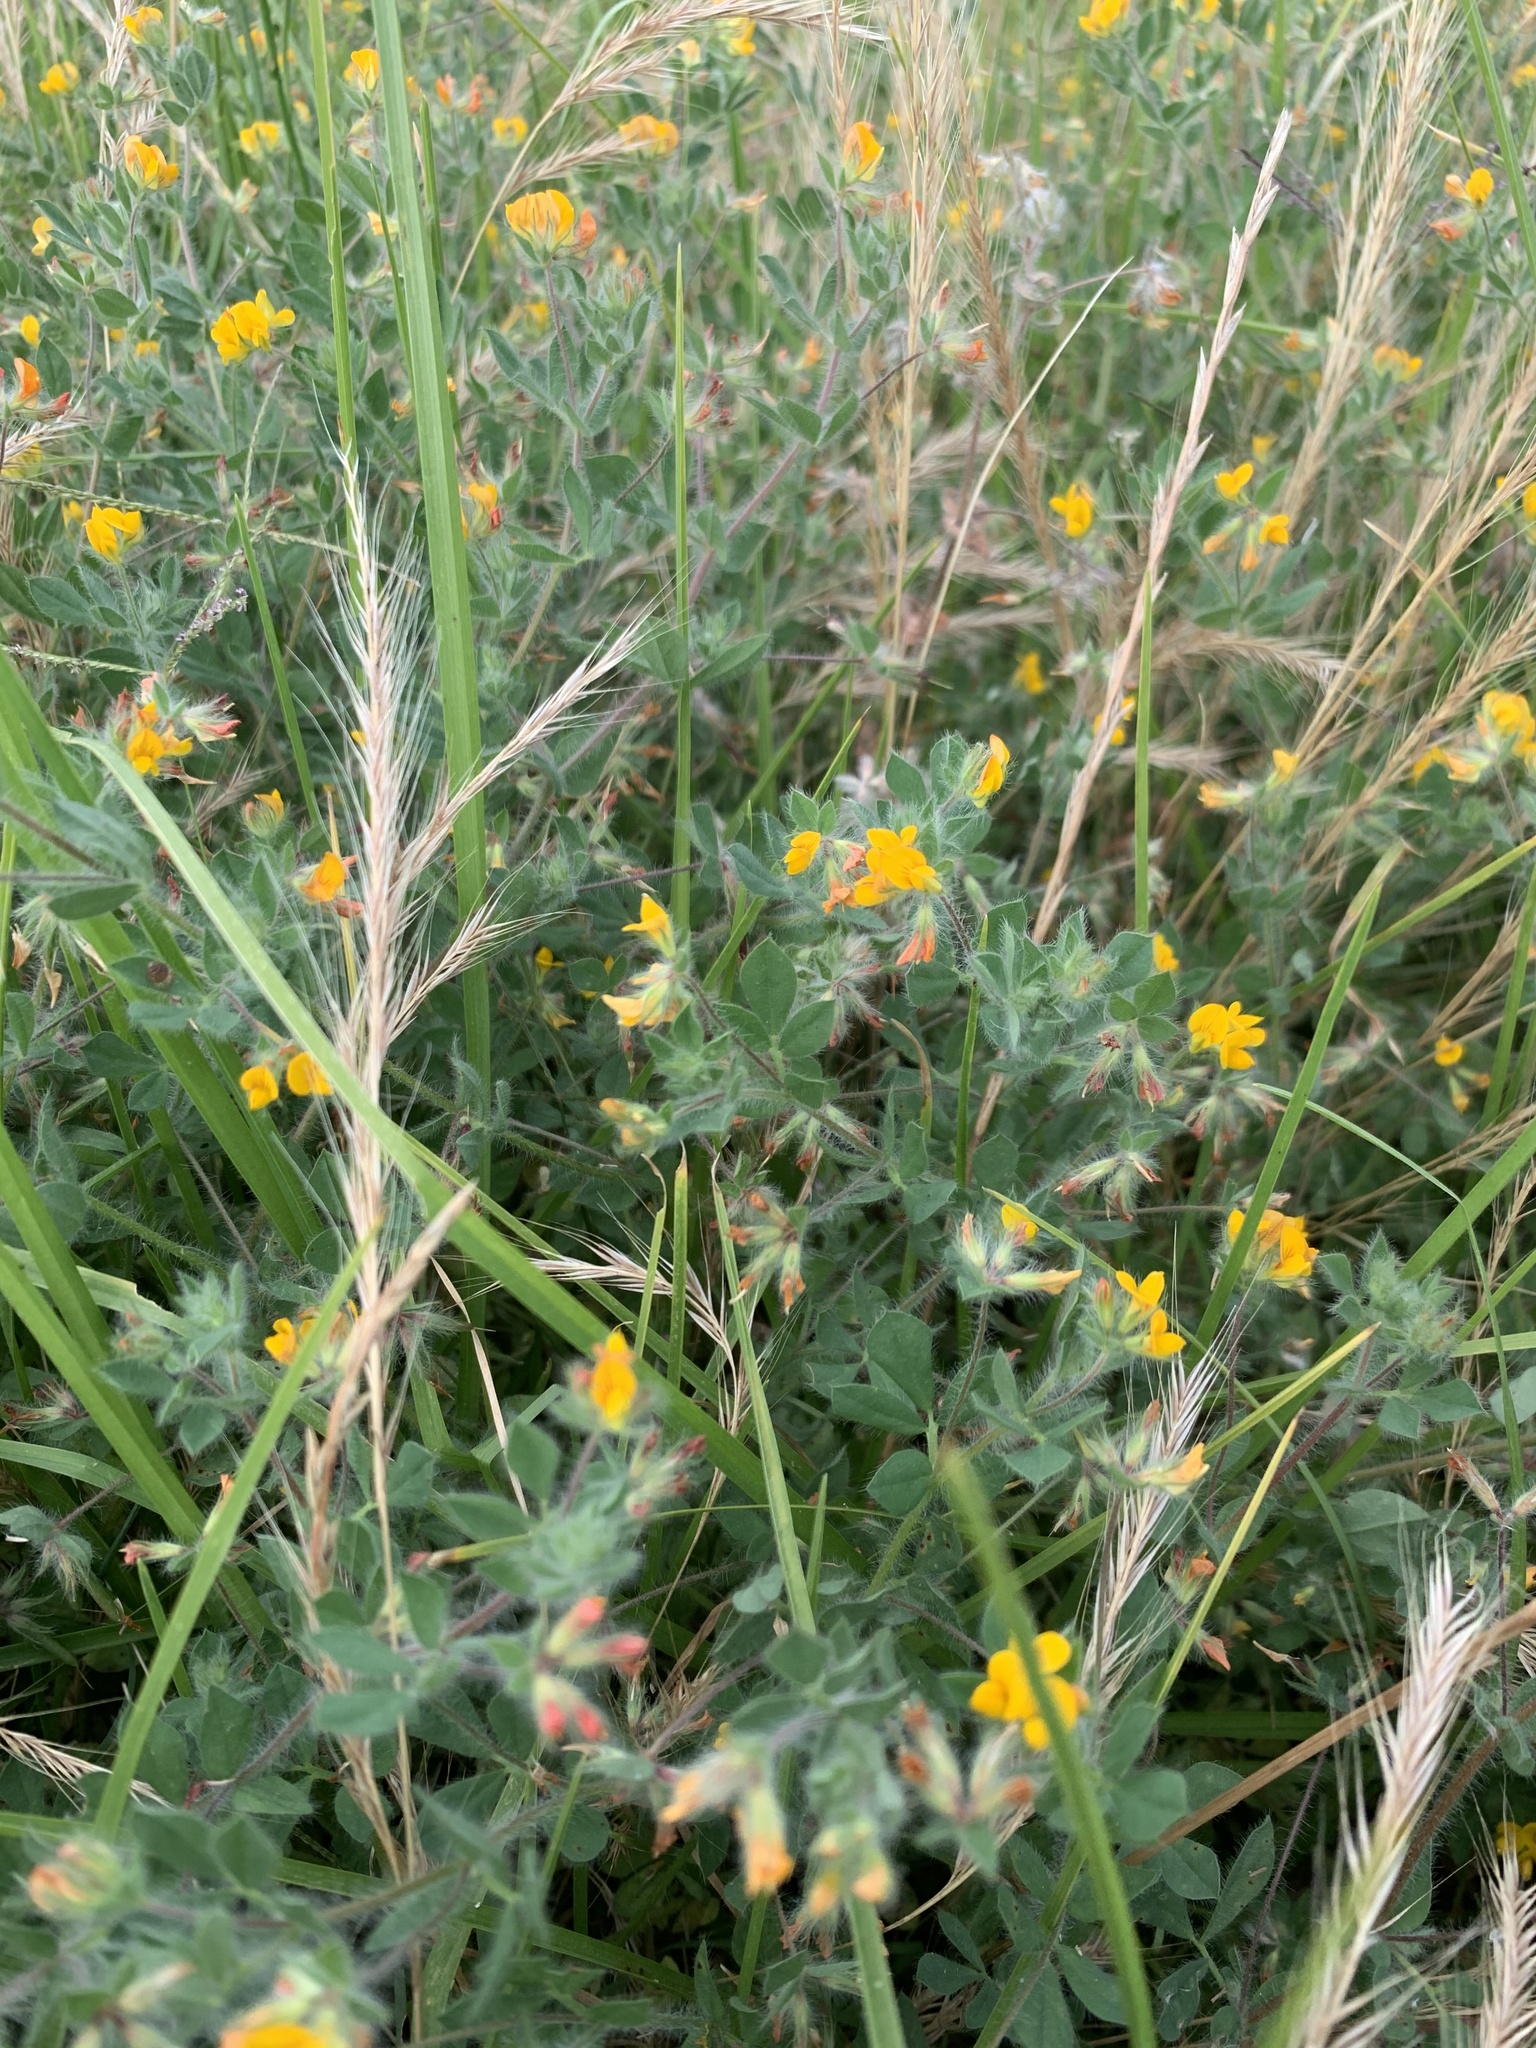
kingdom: Plantae
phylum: Tracheophyta
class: Magnoliopsida
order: Fabales
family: Fabaceae
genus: Lotus
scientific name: Lotus subbiflorus
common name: Hairy bird's-foot trefoil
